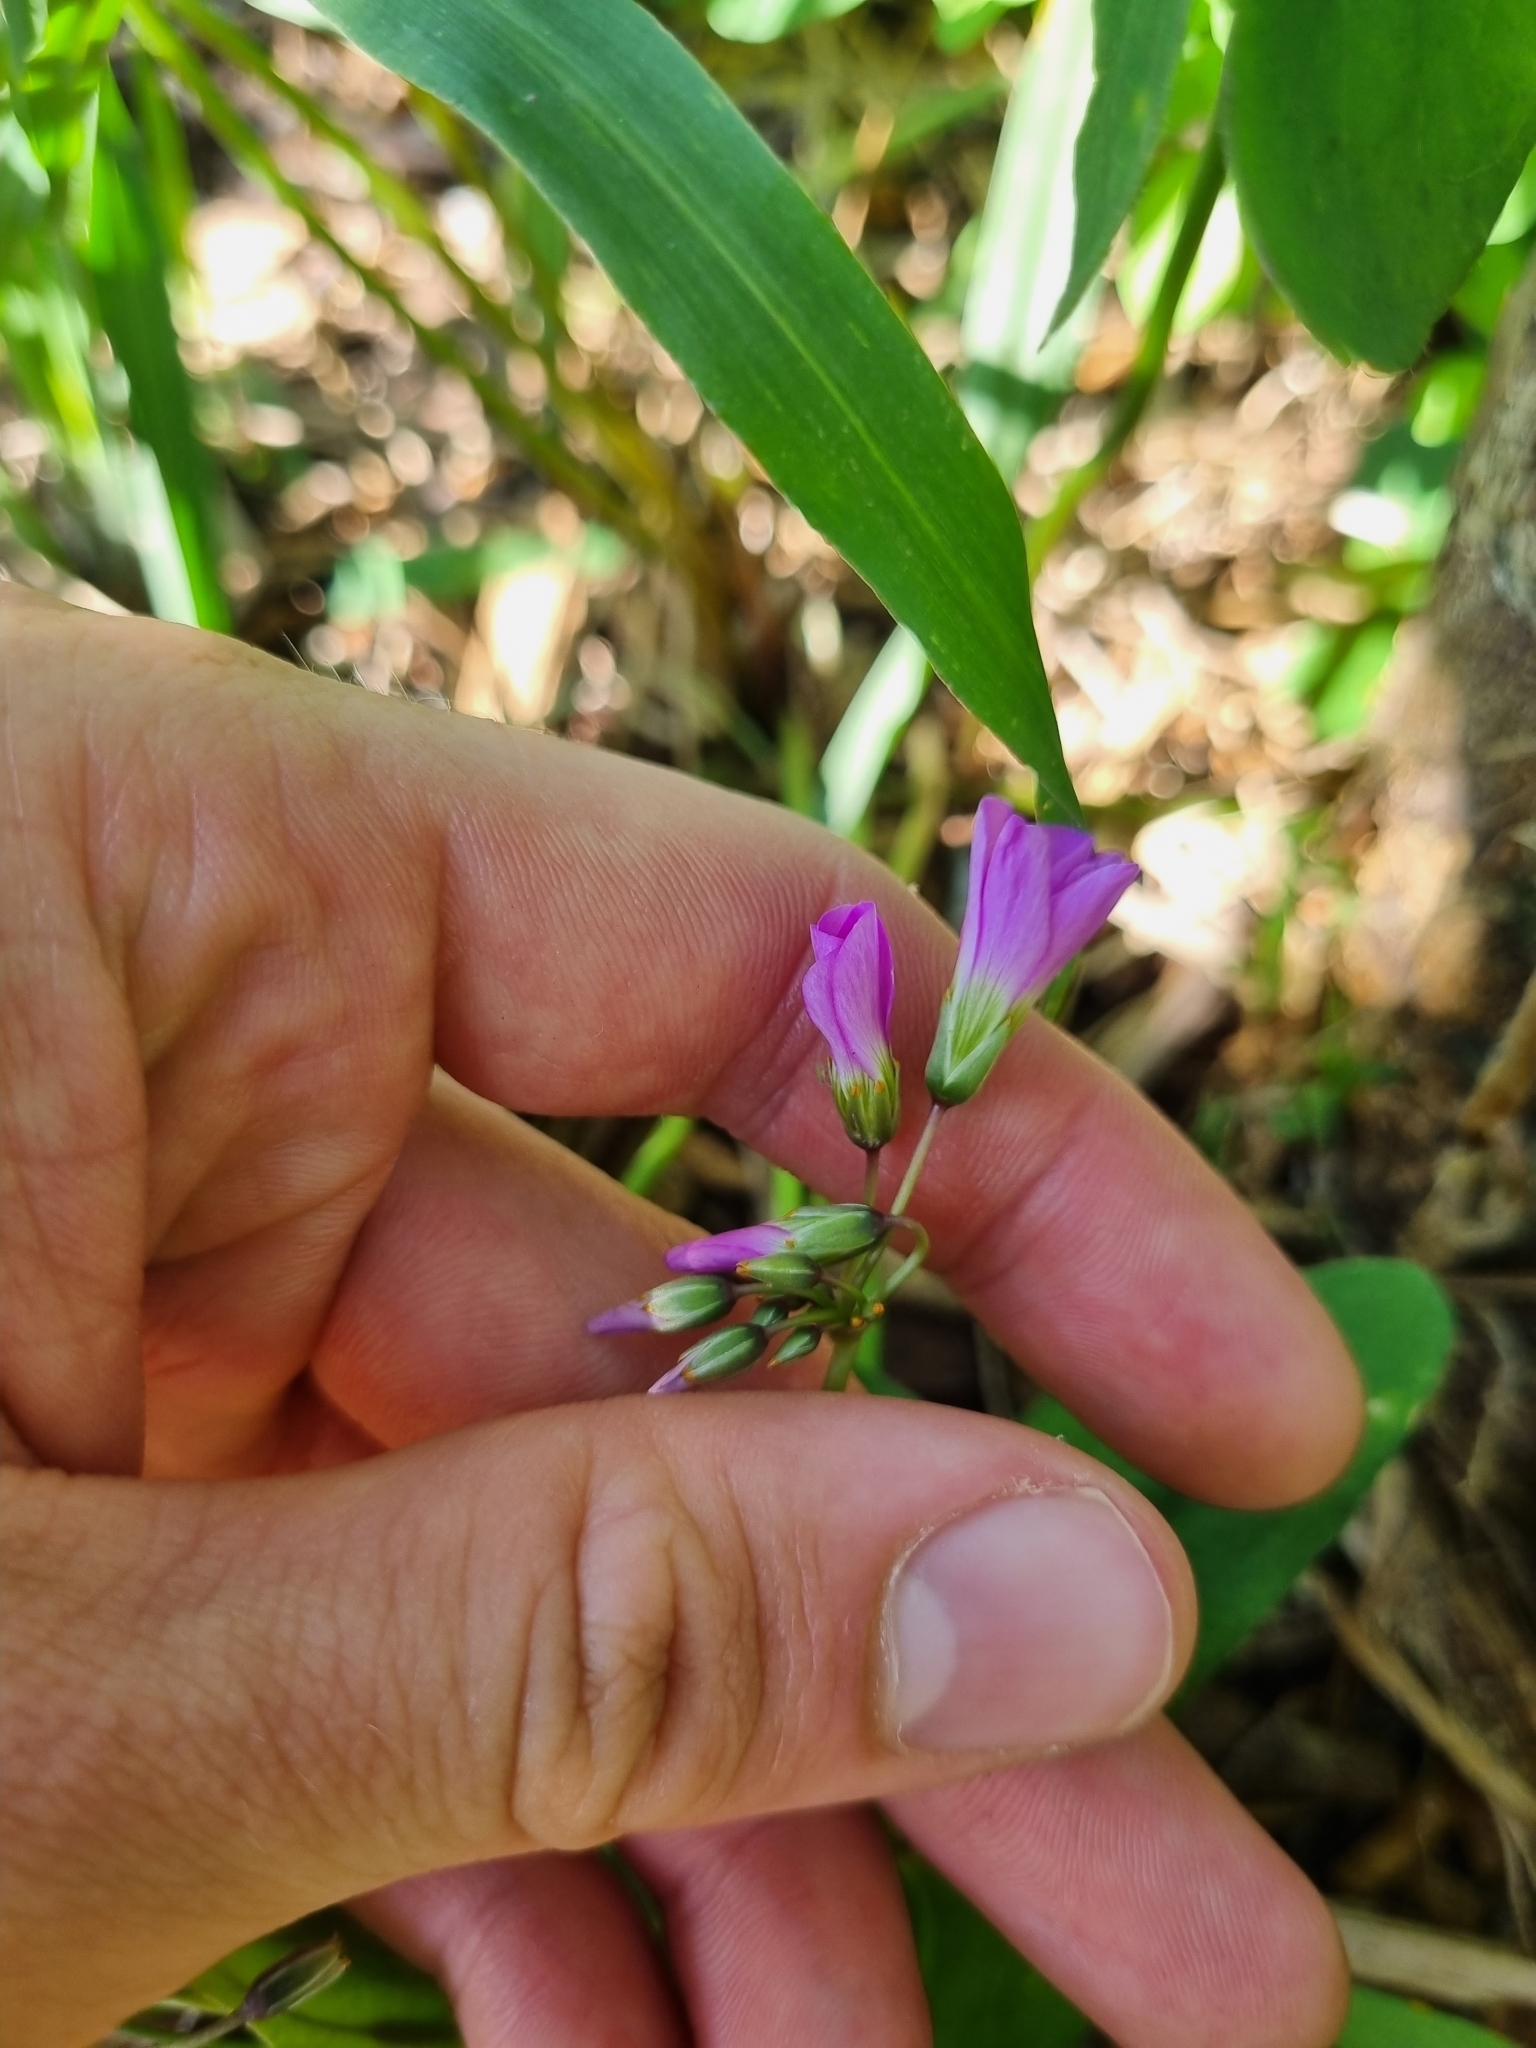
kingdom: Plantae
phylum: Tracheophyta
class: Magnoliopsida
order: Oxalidales
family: Oxalidaceae
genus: Oxalis
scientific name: Oxalis latifolia
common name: Garden pink-sorrel
